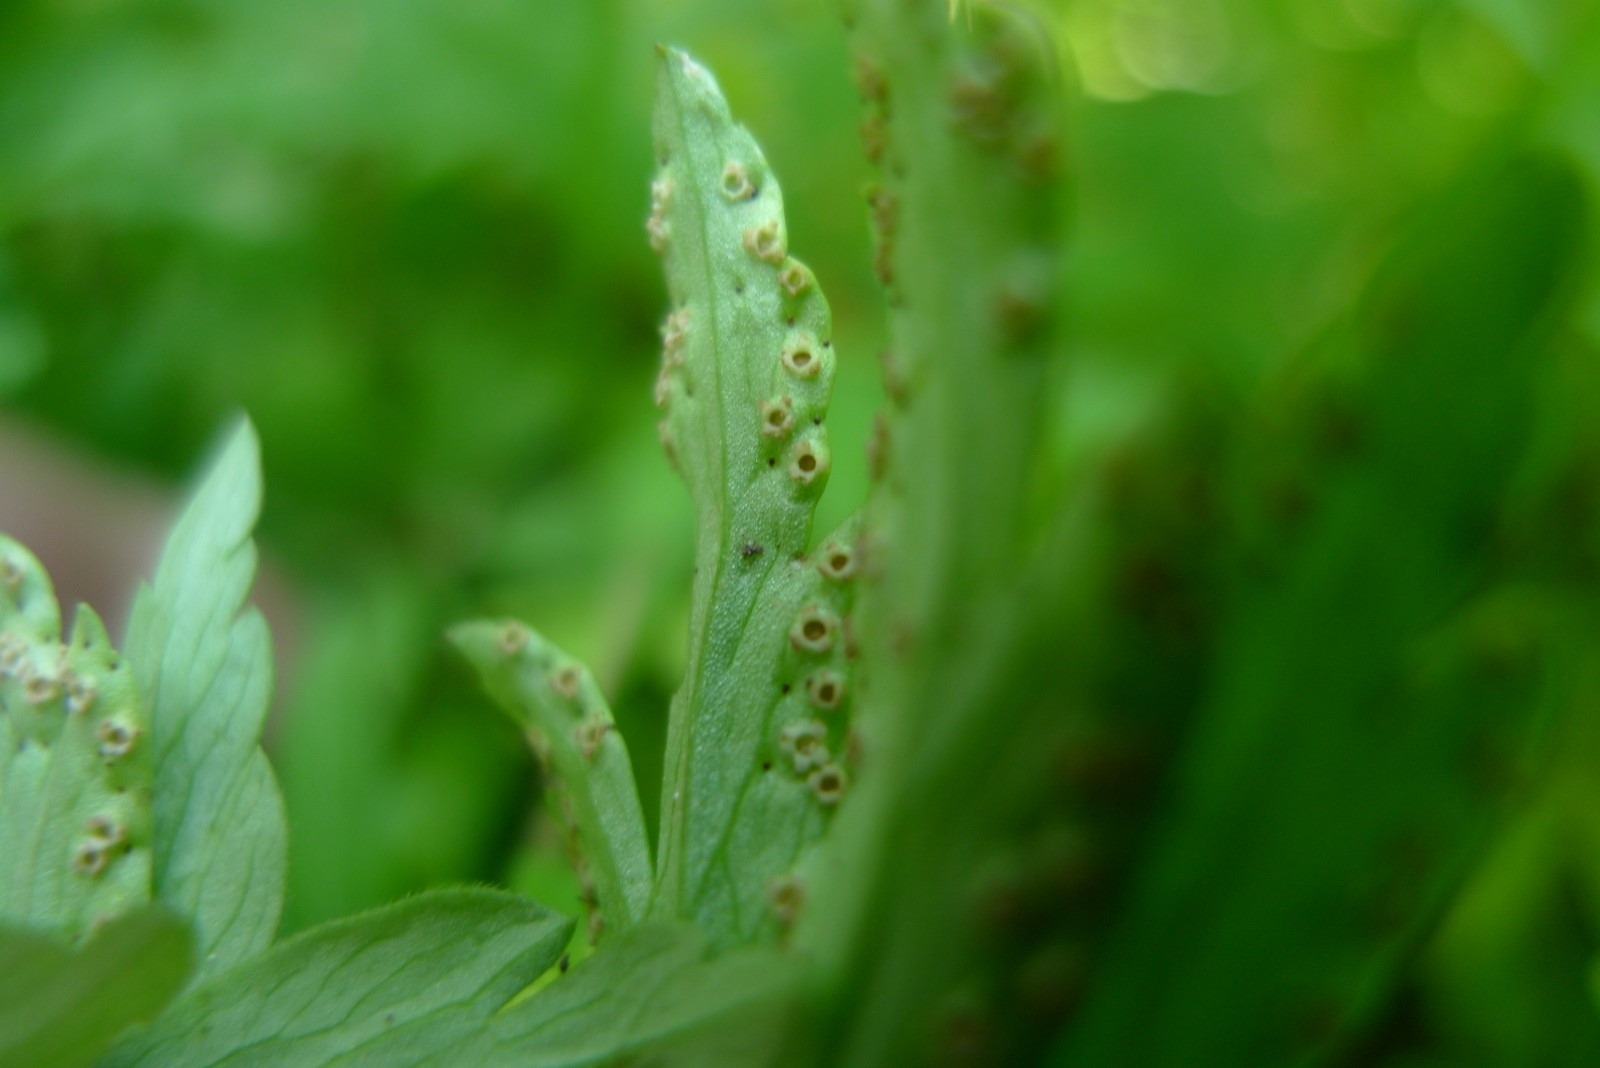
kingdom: Fungi
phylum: Basidiomycota
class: Pucciniomycetes
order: Pucciniales
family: Tranzscheliaceae
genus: Tranzschelia
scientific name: Tranzschelia pruni-spinosae
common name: Blackthorn rust
